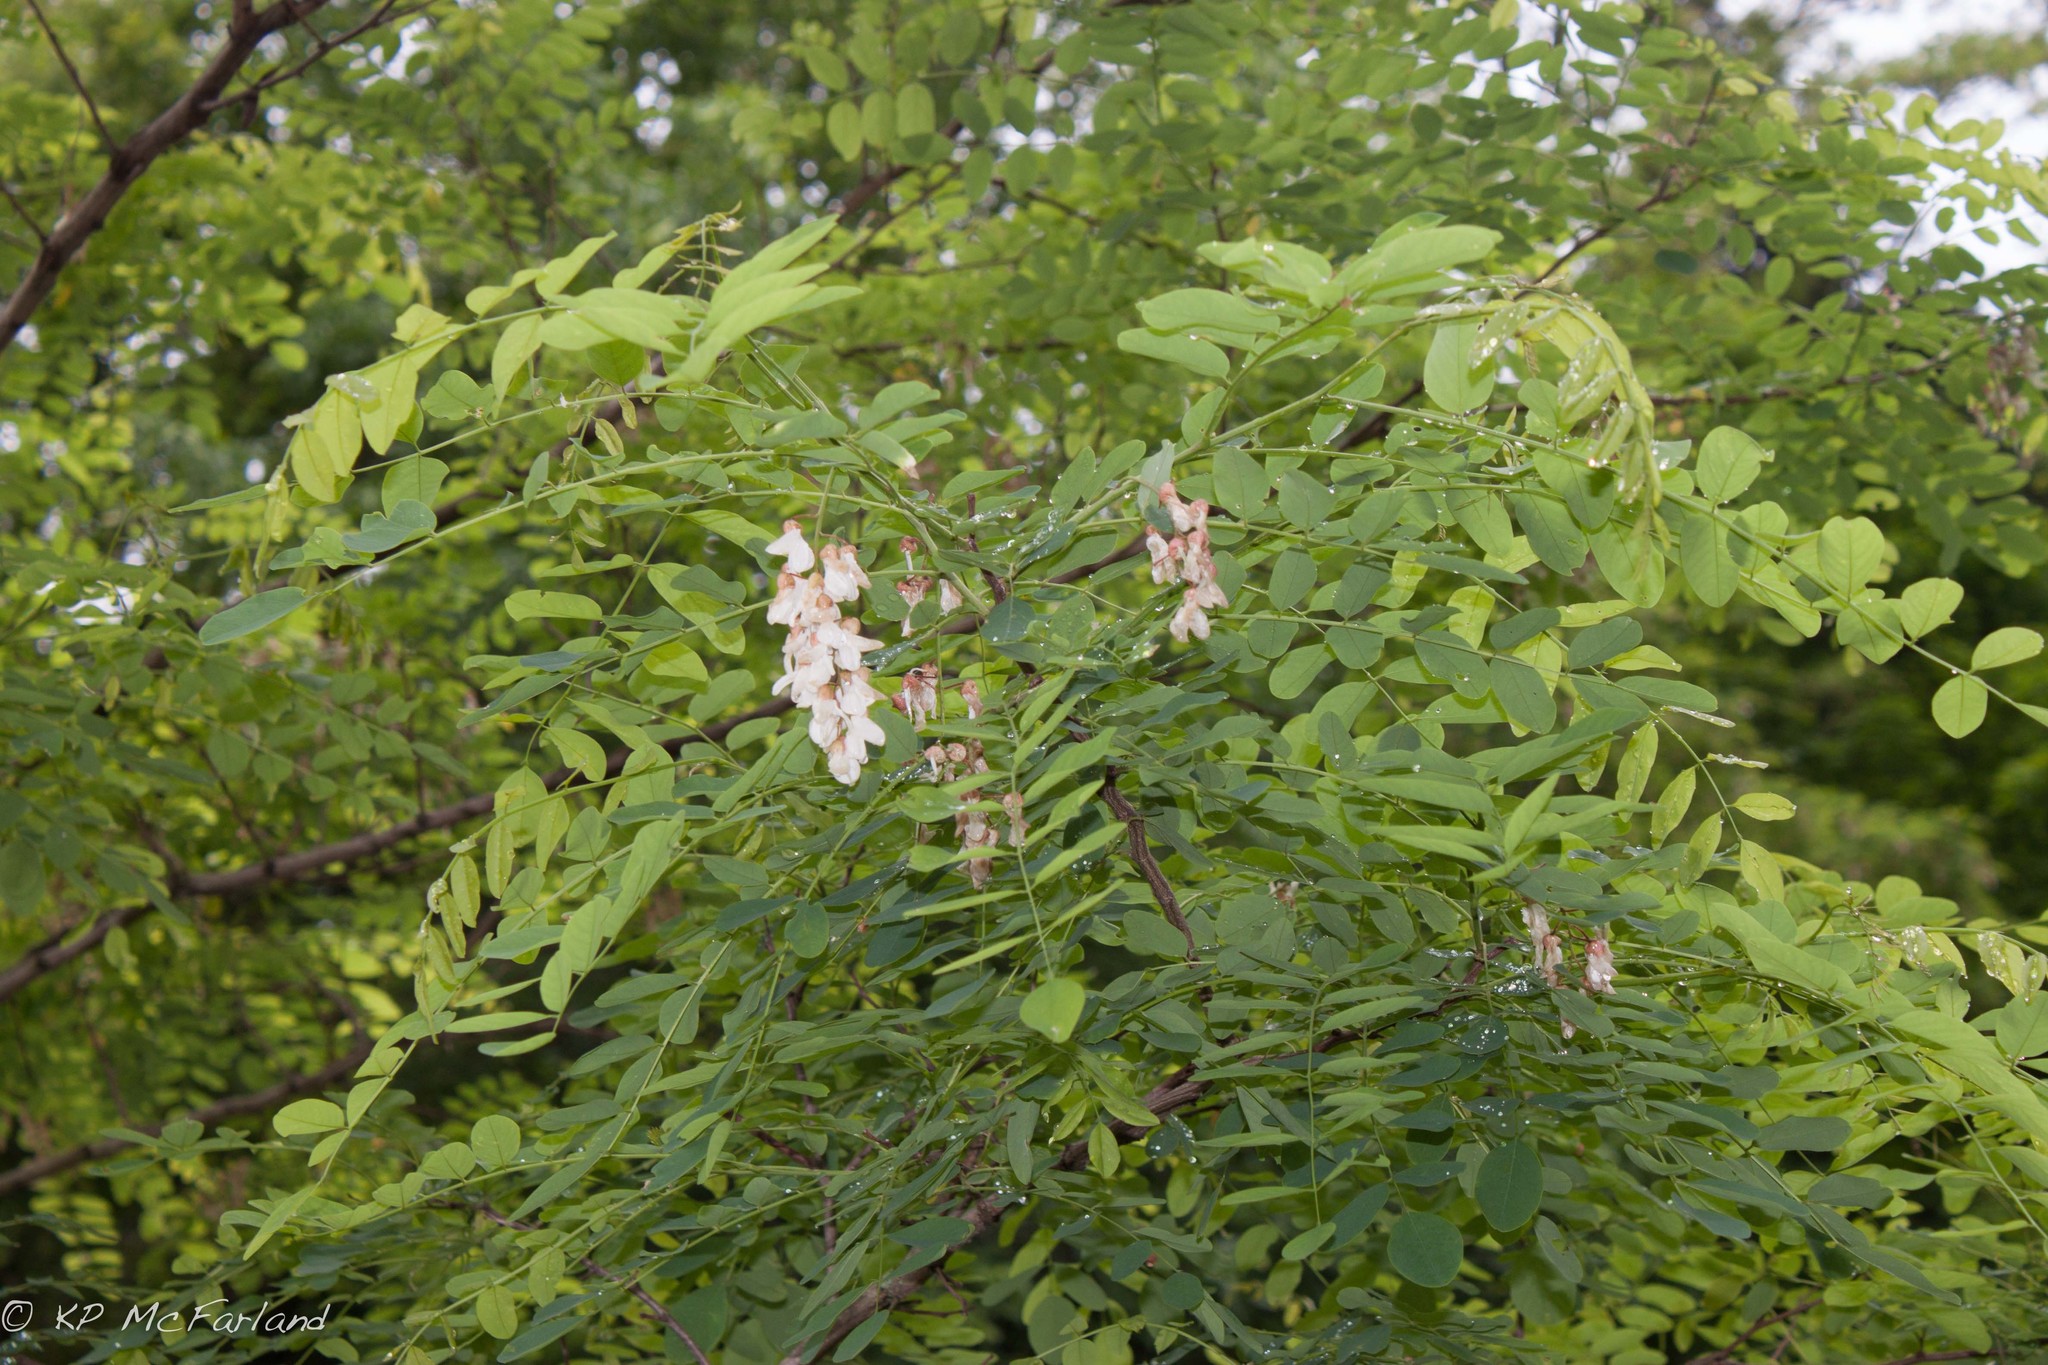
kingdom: Plantae
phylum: Tracheophyta
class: Magnoliopsida
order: Fabales
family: Fabaceae
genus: Robinia
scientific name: Robinia pseudoacacia
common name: Black locust
